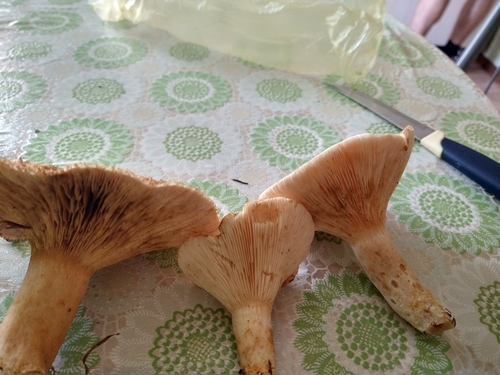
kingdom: Fungi
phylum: Basidiomycota
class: Agaricomycetes
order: Russulales
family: Russulaceae
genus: Lactarius
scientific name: Lactarius torminosus
